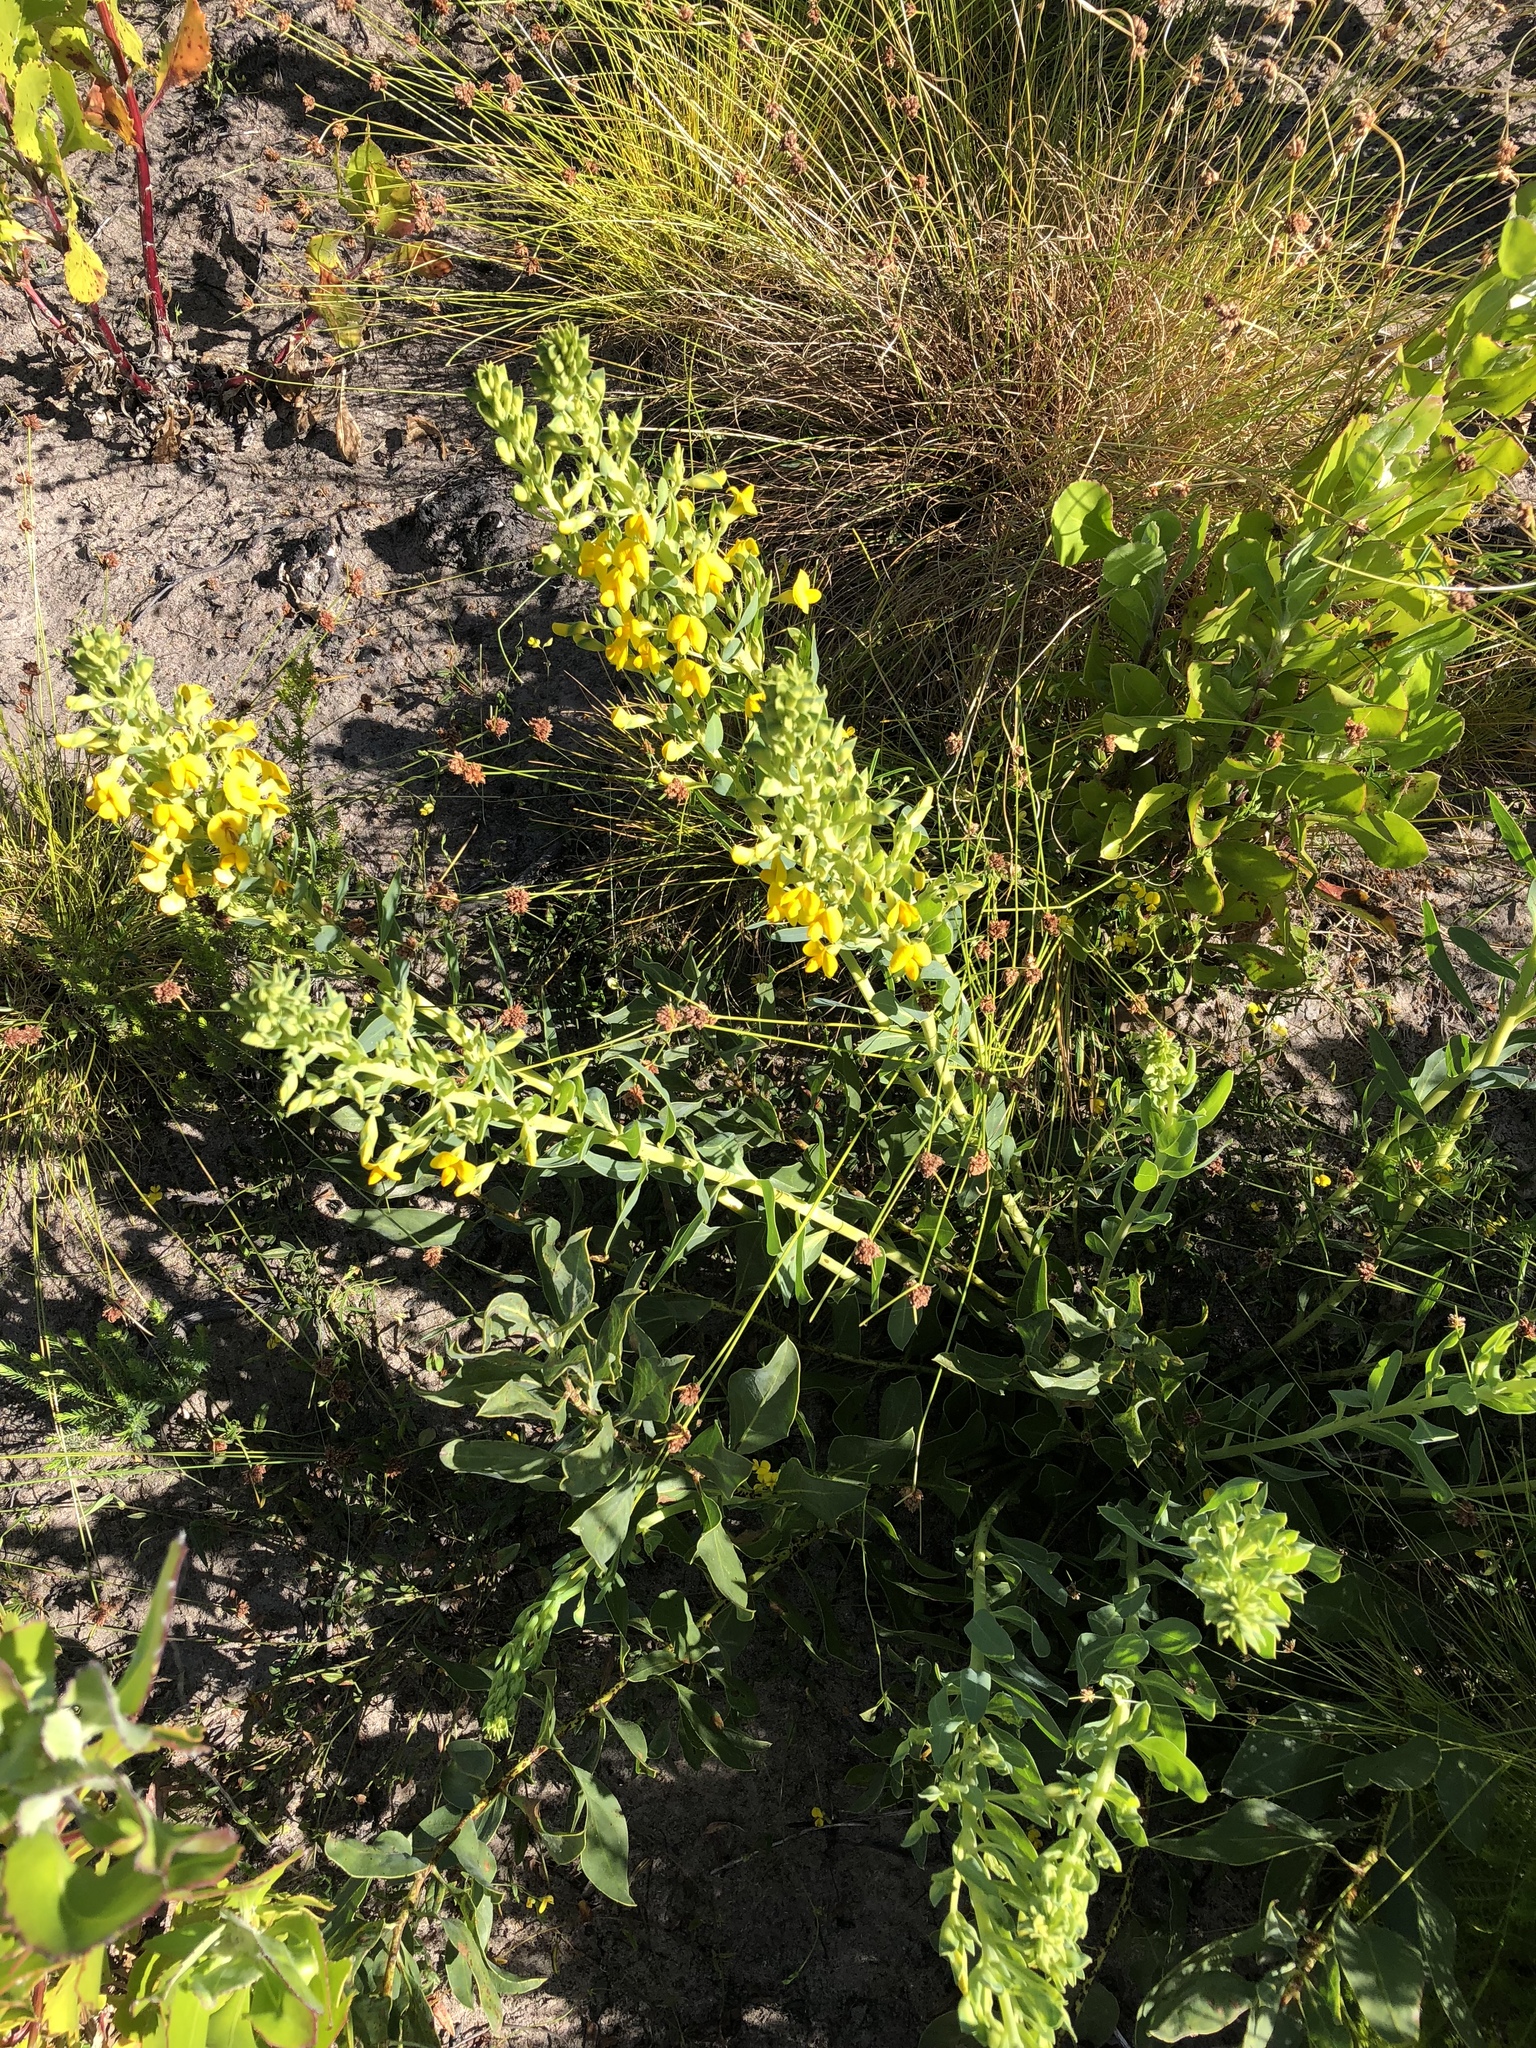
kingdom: Plantae
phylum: Tracheophyta
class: Magnoliopsida
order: Fabales
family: Fabaceae
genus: Rafnia
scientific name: Rafnia elliptica
